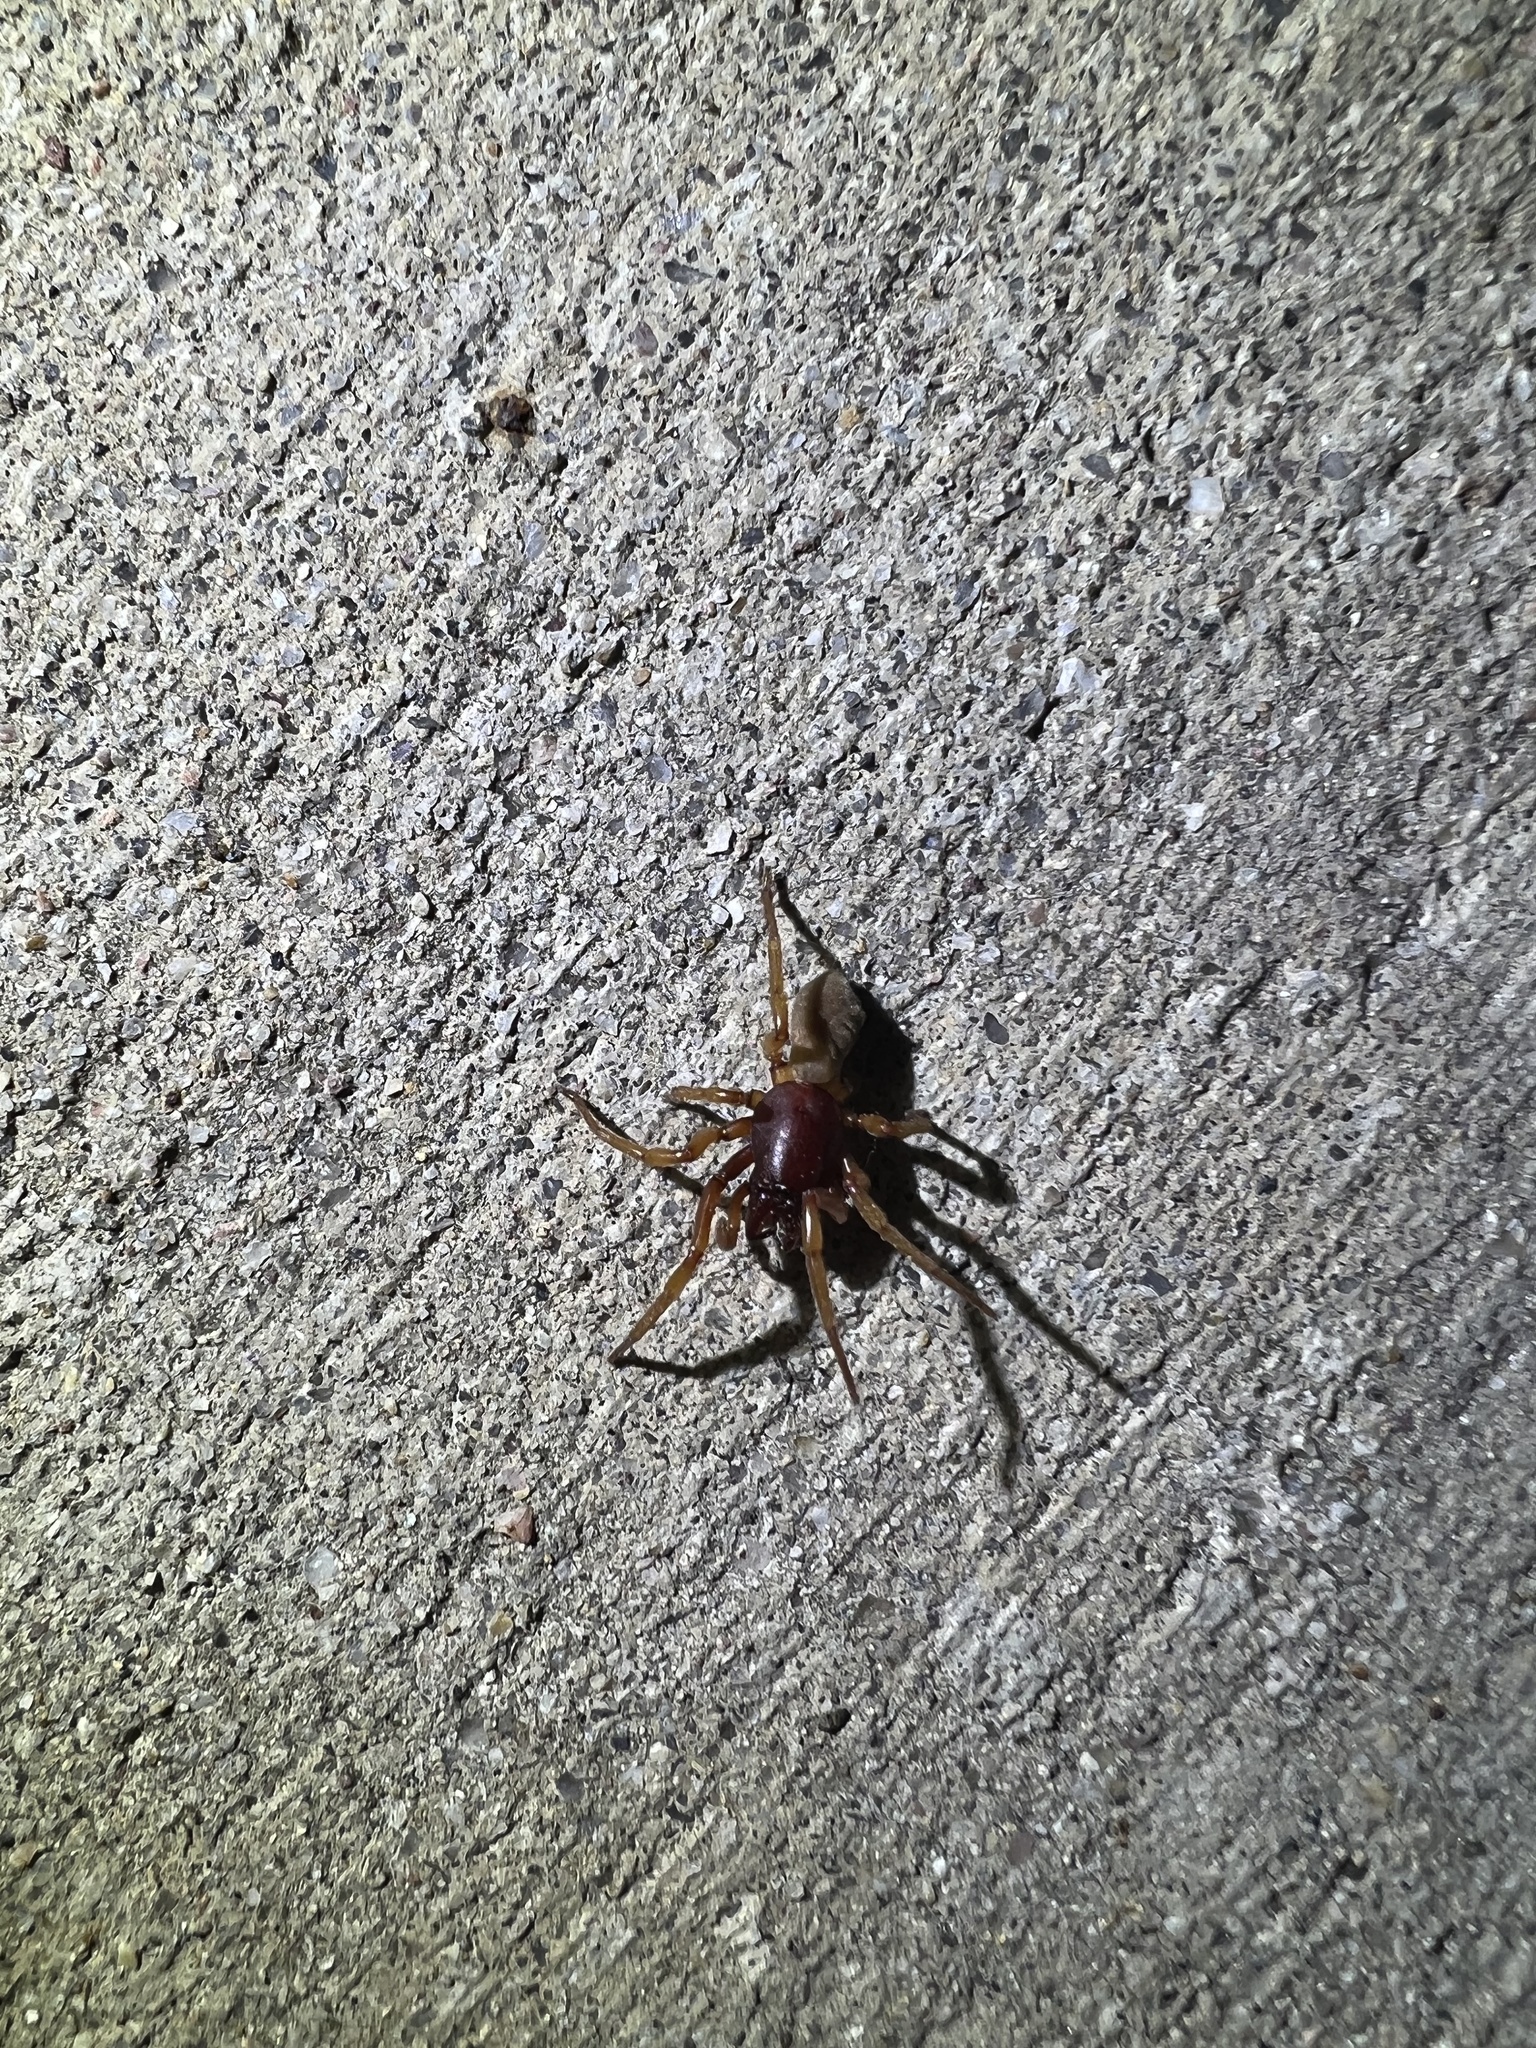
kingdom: Animalia
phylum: Arthropoda
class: Arachnida
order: Araneae
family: Dysderidae
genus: Dysdera
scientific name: Dysdera crocata
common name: Woodlouse spider
